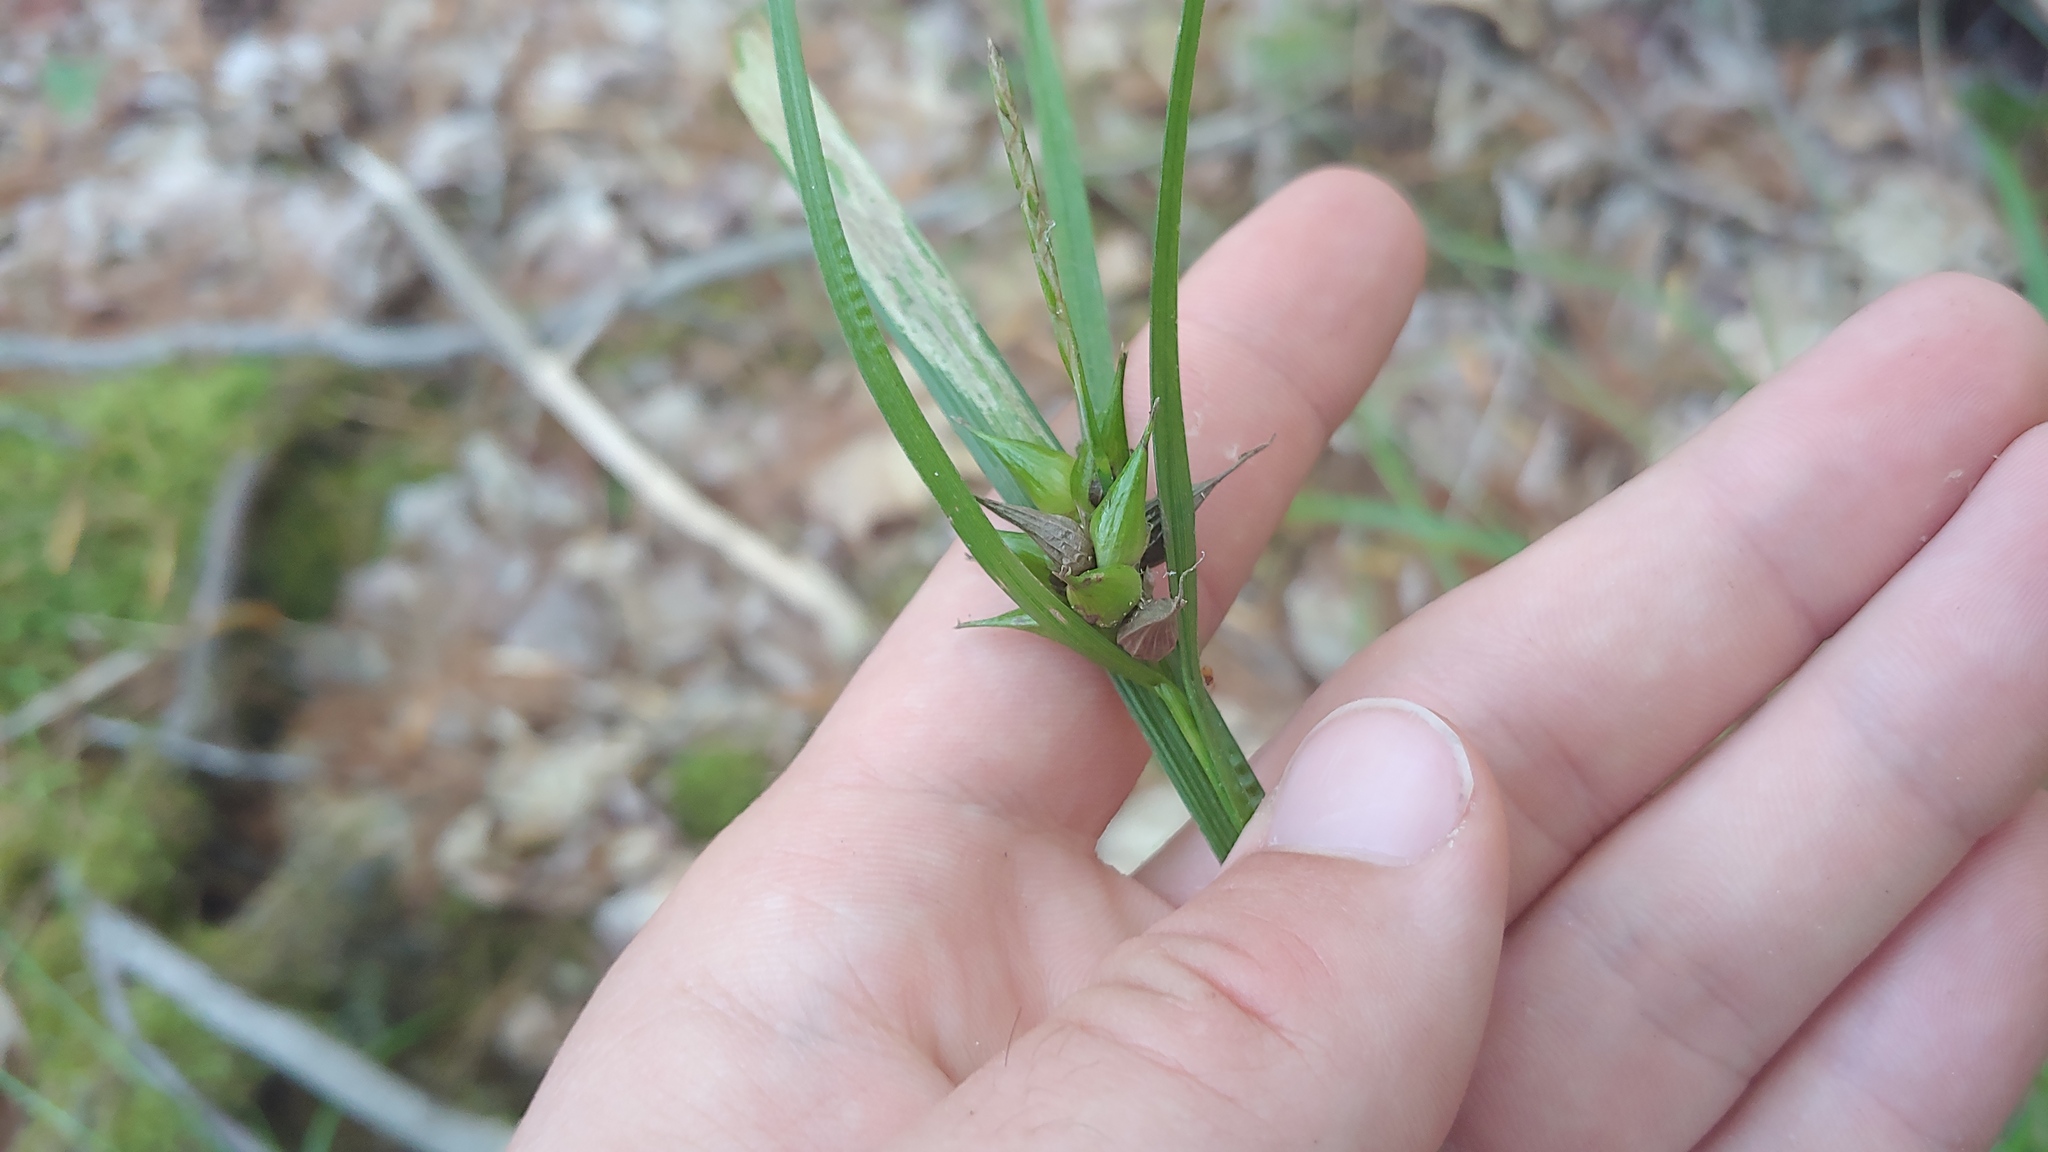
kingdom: Plantae
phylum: Tracheophyta
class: Liliopsida
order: Poales
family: Cyperaceae
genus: Carex
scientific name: Carex intumescens
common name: Greater bladder sedge
